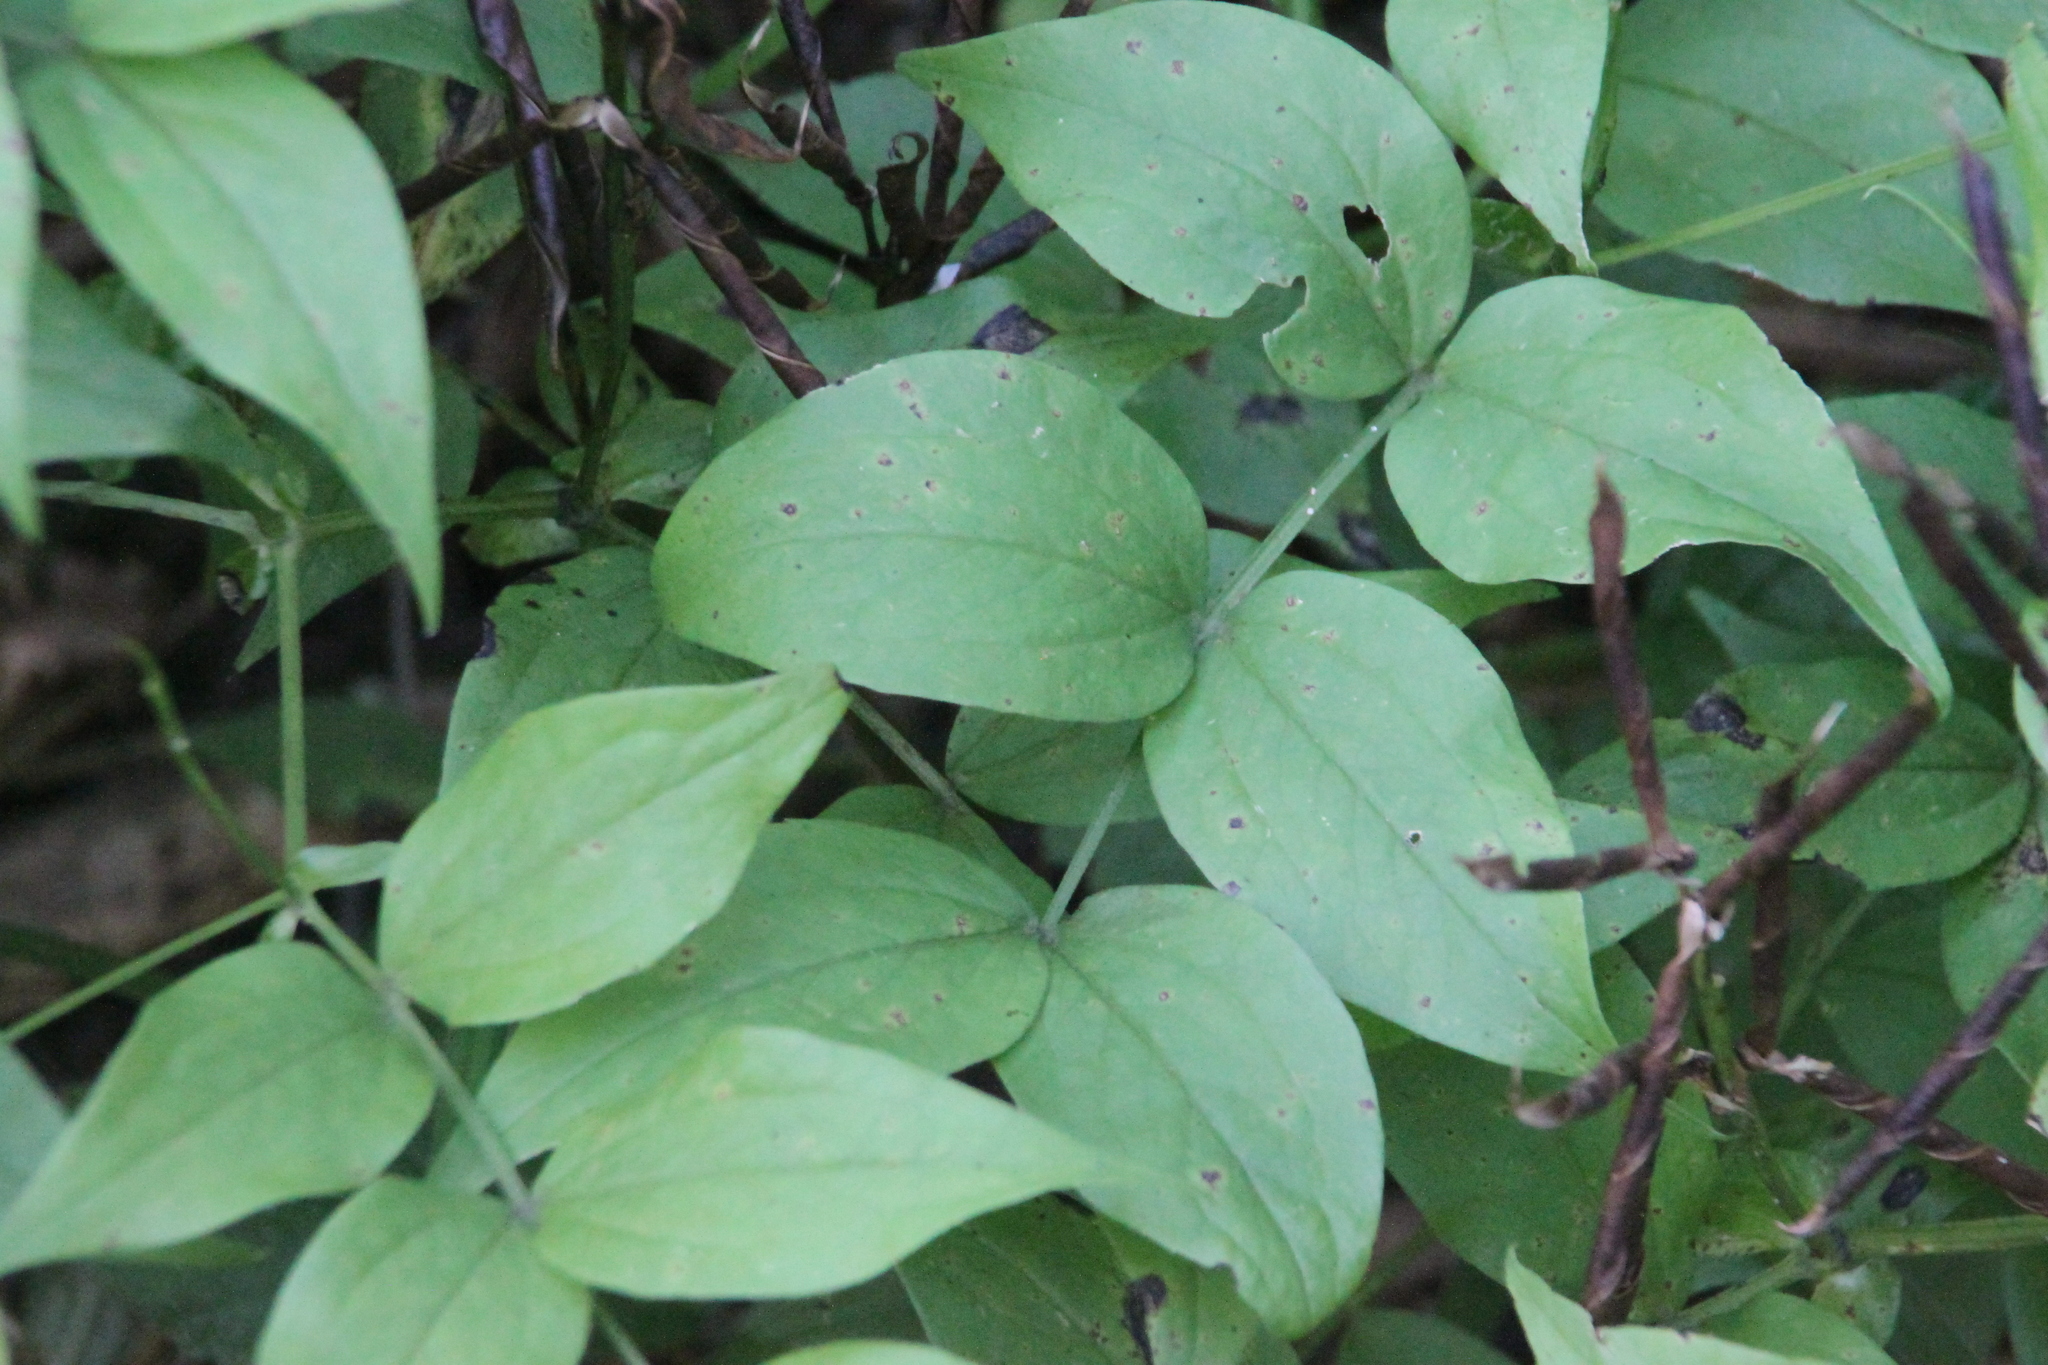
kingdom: Plantae
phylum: Tracheophyta
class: Magnoliopsida
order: Fabales
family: Fabaceae
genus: Lathyrus
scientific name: Lathyrus vernus
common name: Spring pea
